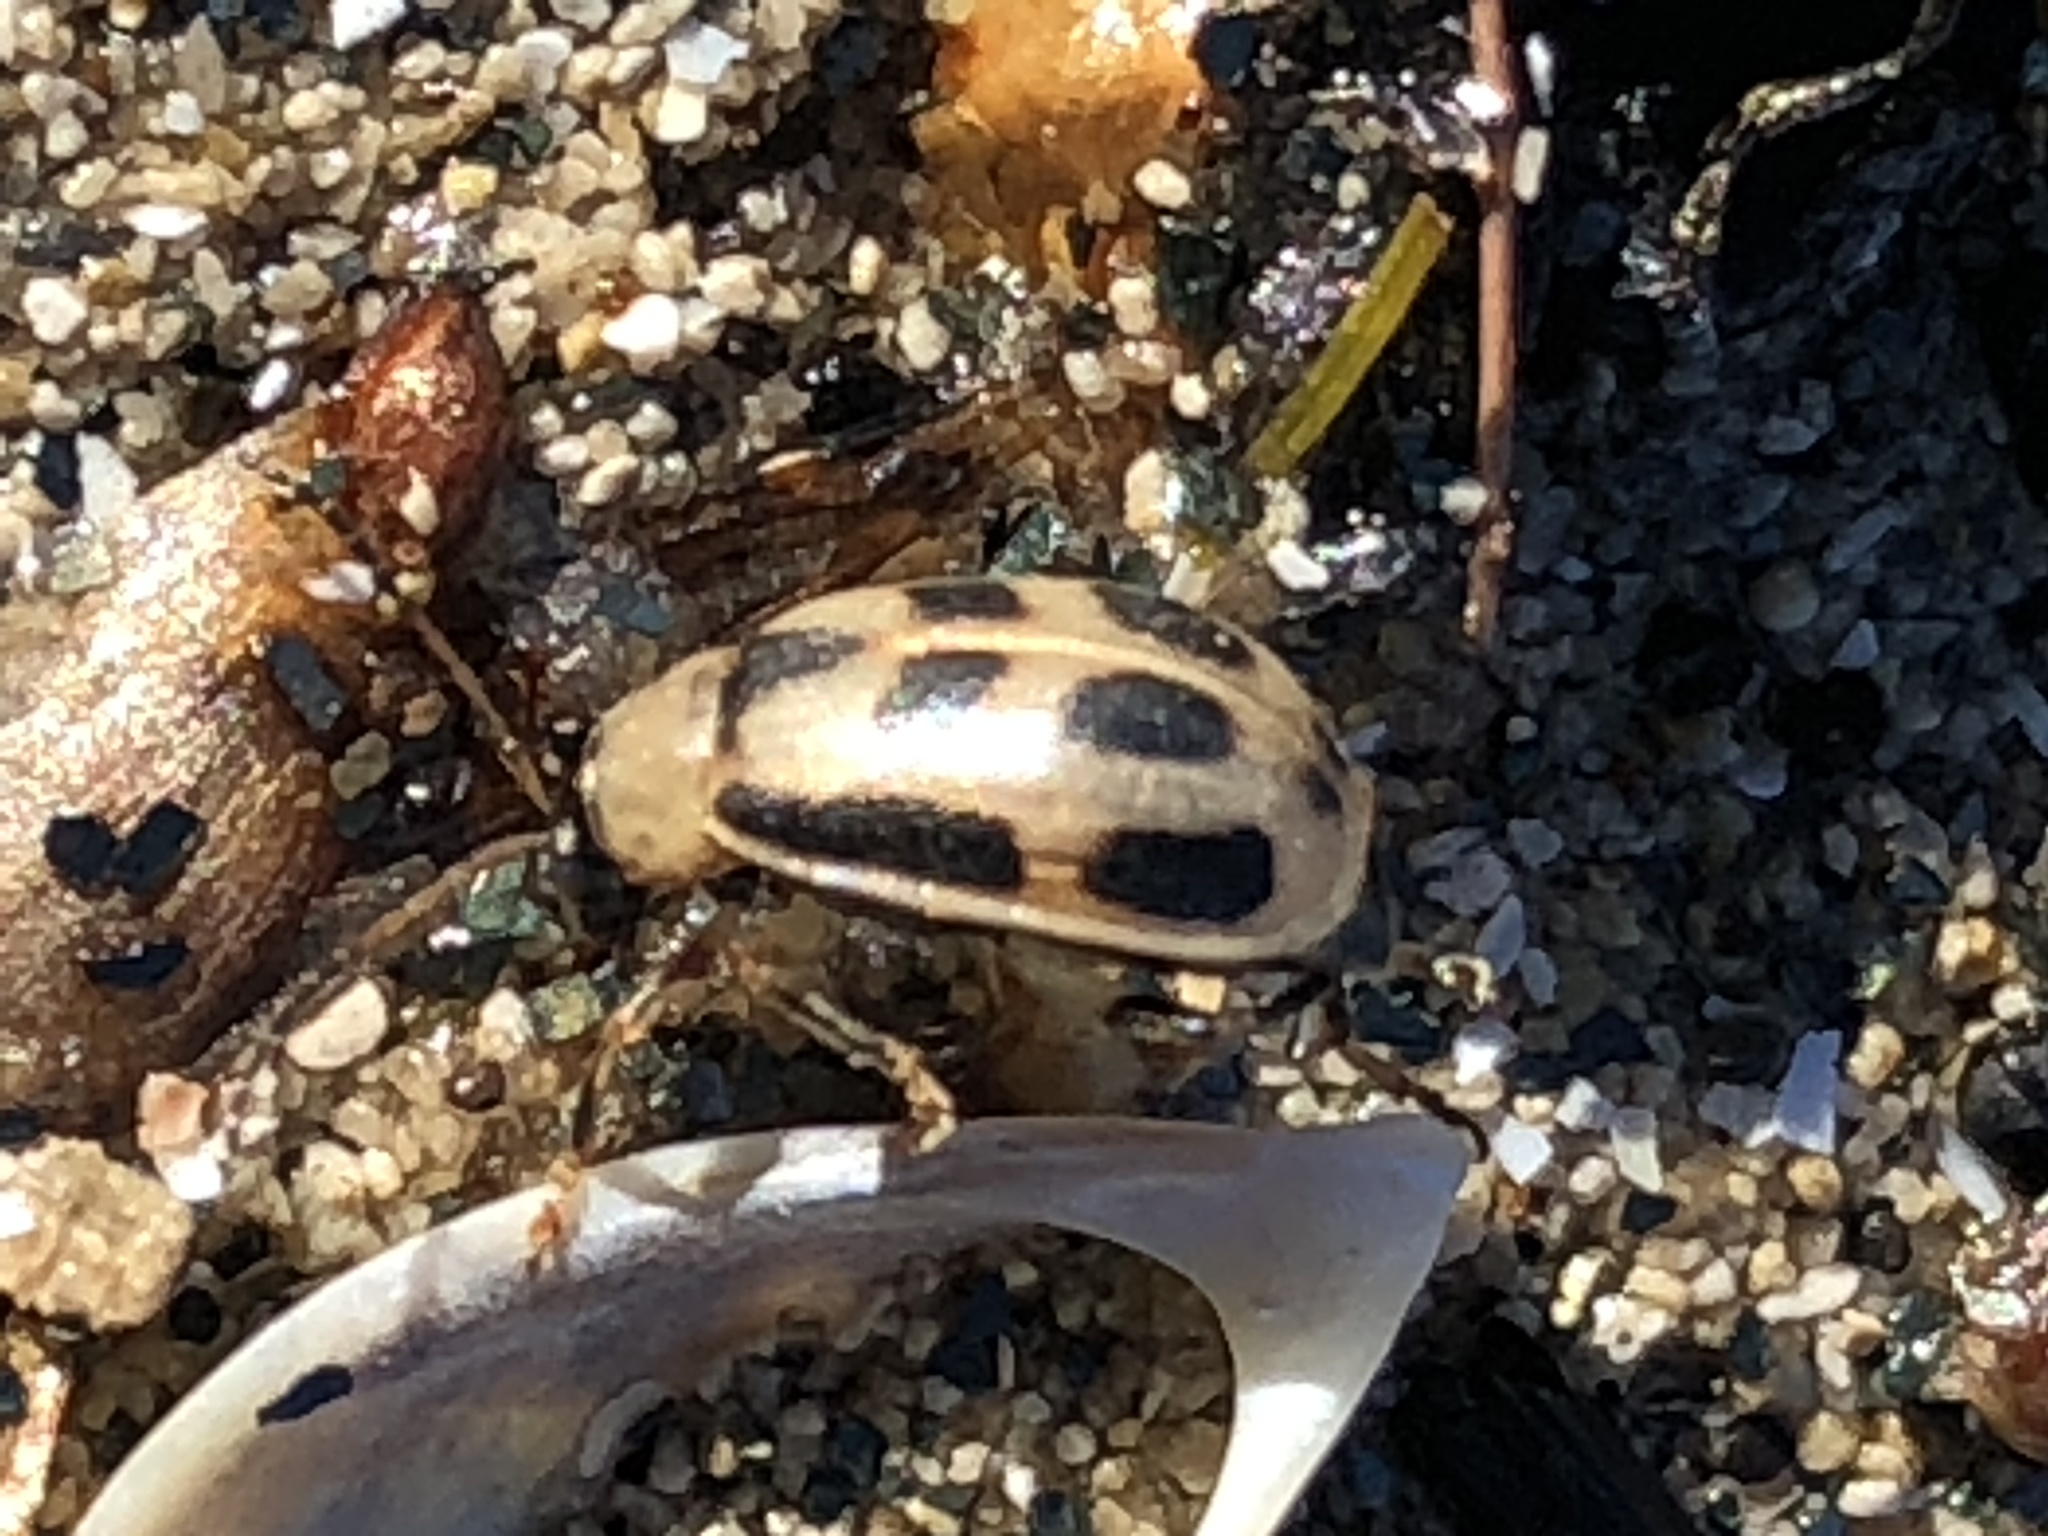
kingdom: Animalia
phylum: Arthropoda
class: Insecta
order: Coleoptera
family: Chrysomelidae
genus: Cerotoma
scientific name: Cerotoma trifurcata
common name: Bean leaf beetle
